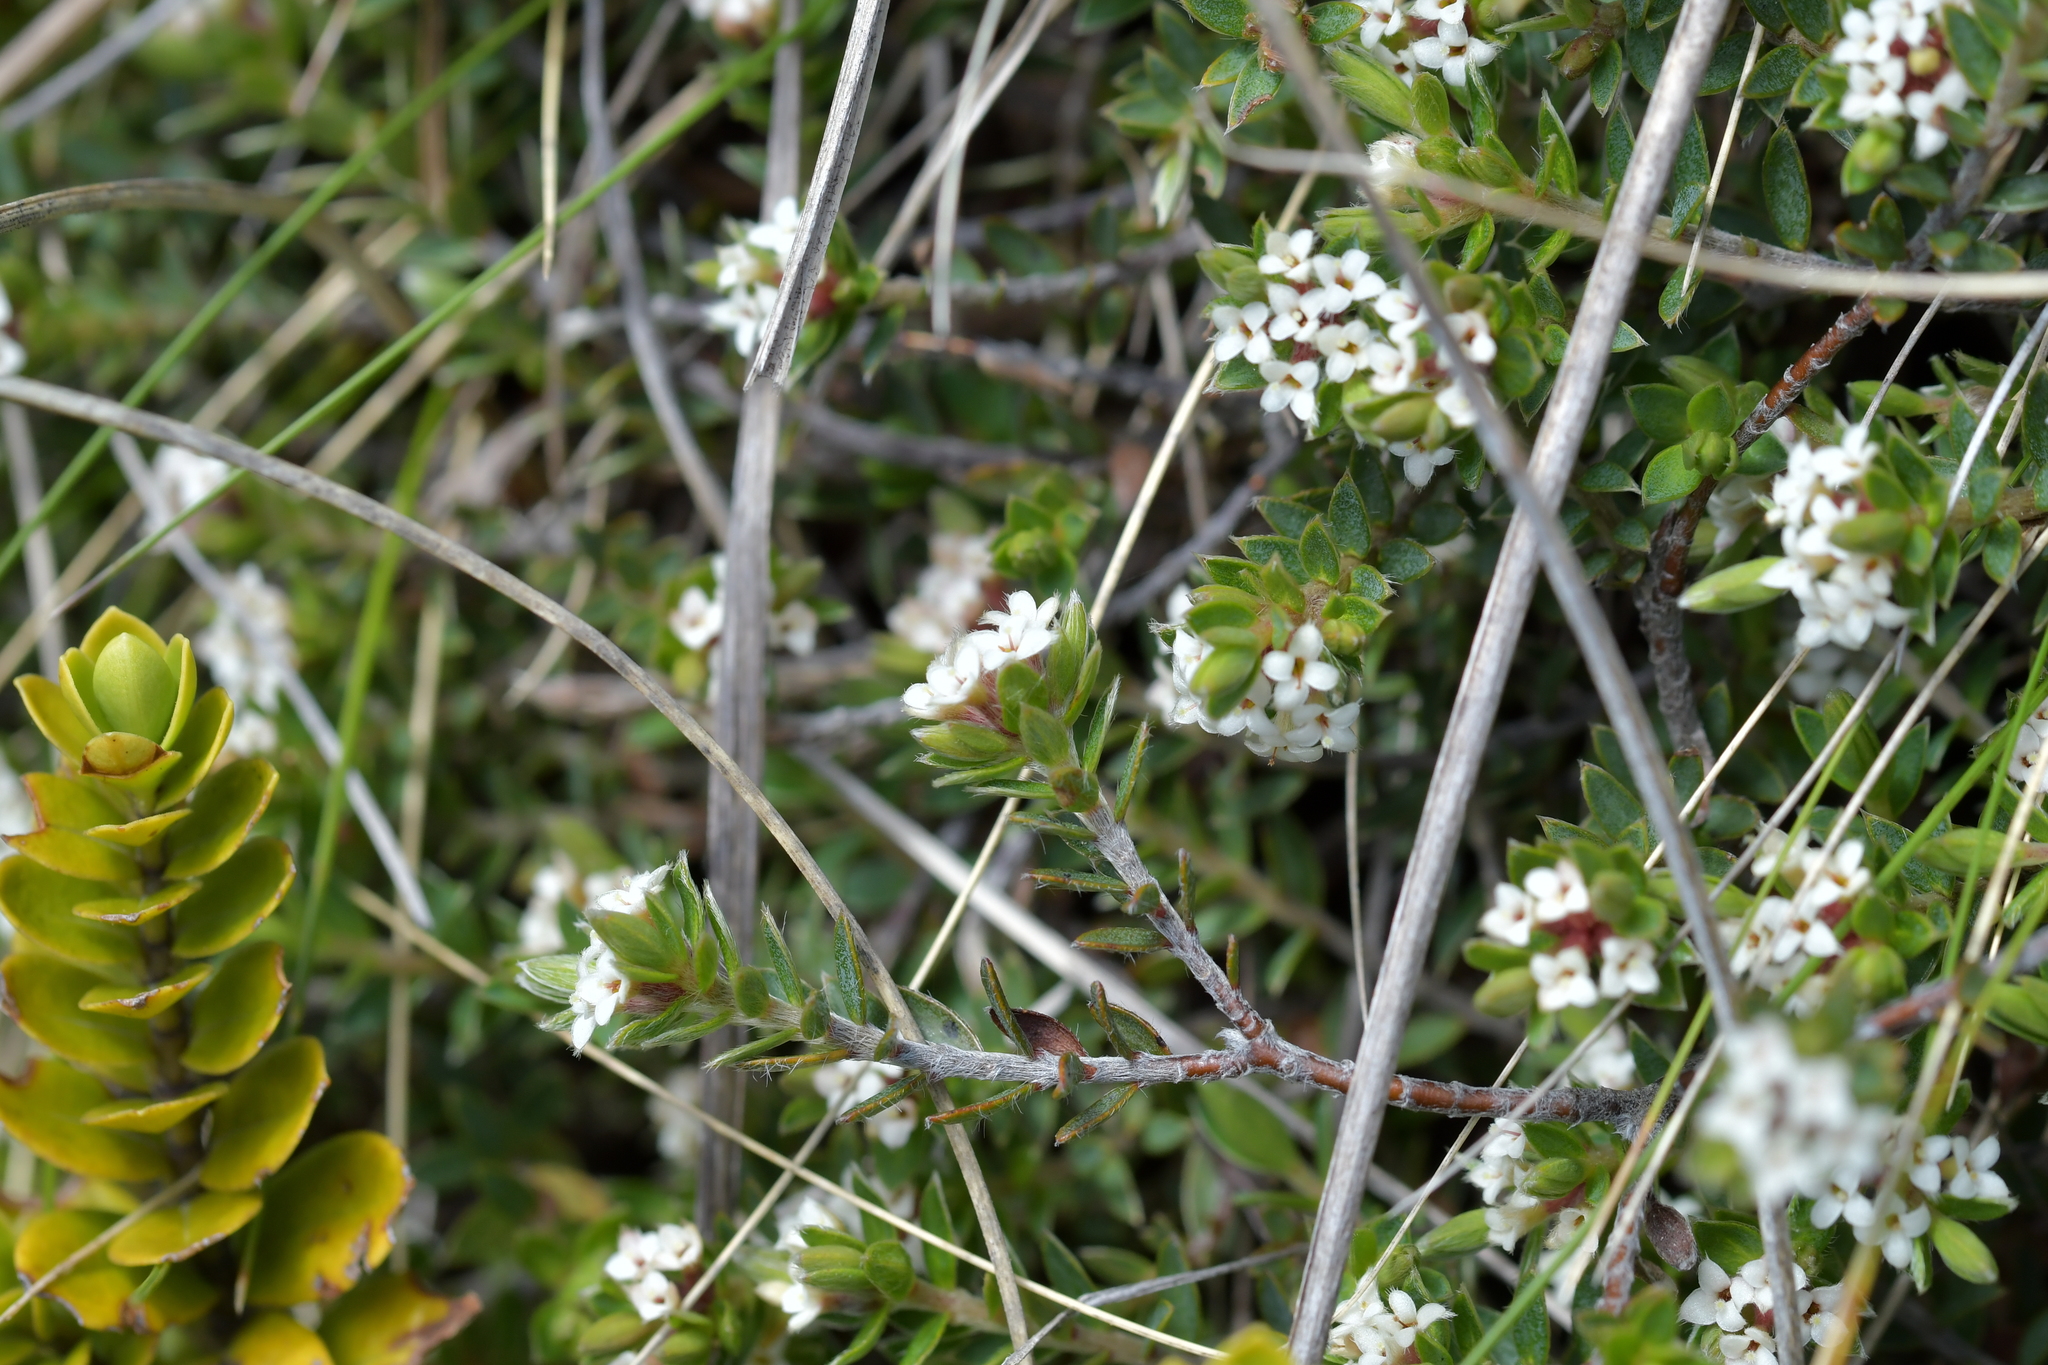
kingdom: Plantae
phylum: Tracheophyta
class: Magnoliopsida
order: Malvales
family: Thymelaeaceae
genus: Pimelea
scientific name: Pimelea oreophila
